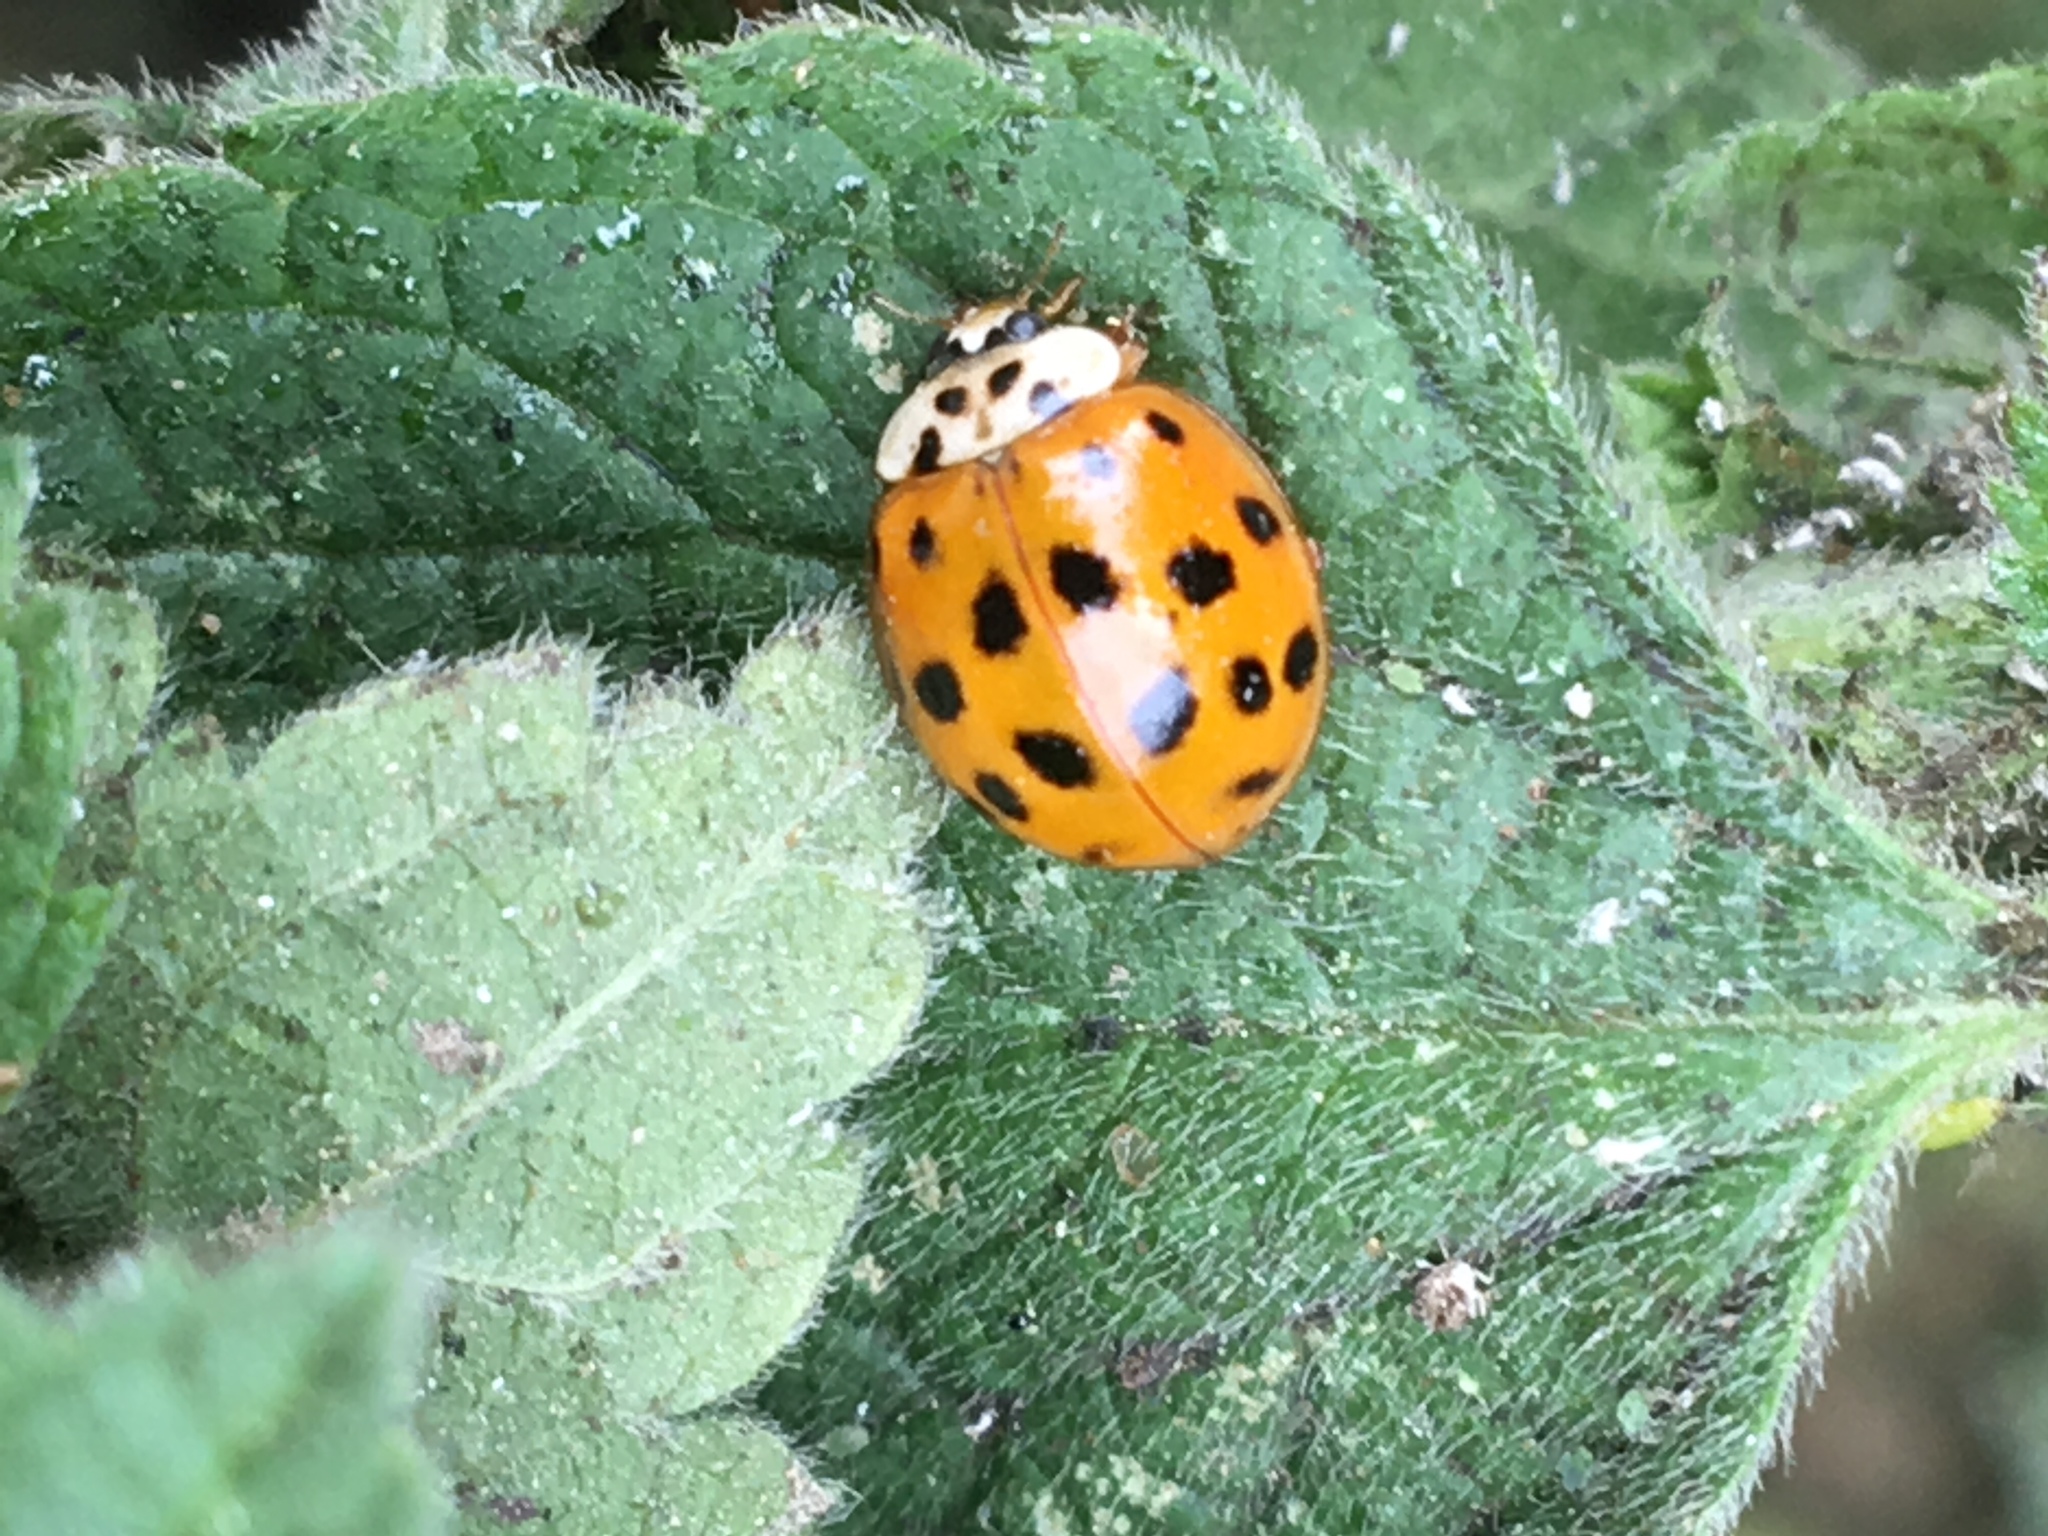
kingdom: Animalia
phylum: Arthropoda
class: Insecta
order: Coleoptera
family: Coccinellidae
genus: Harmonia
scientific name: Harmonia axyridis
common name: Harlequin ladybird
